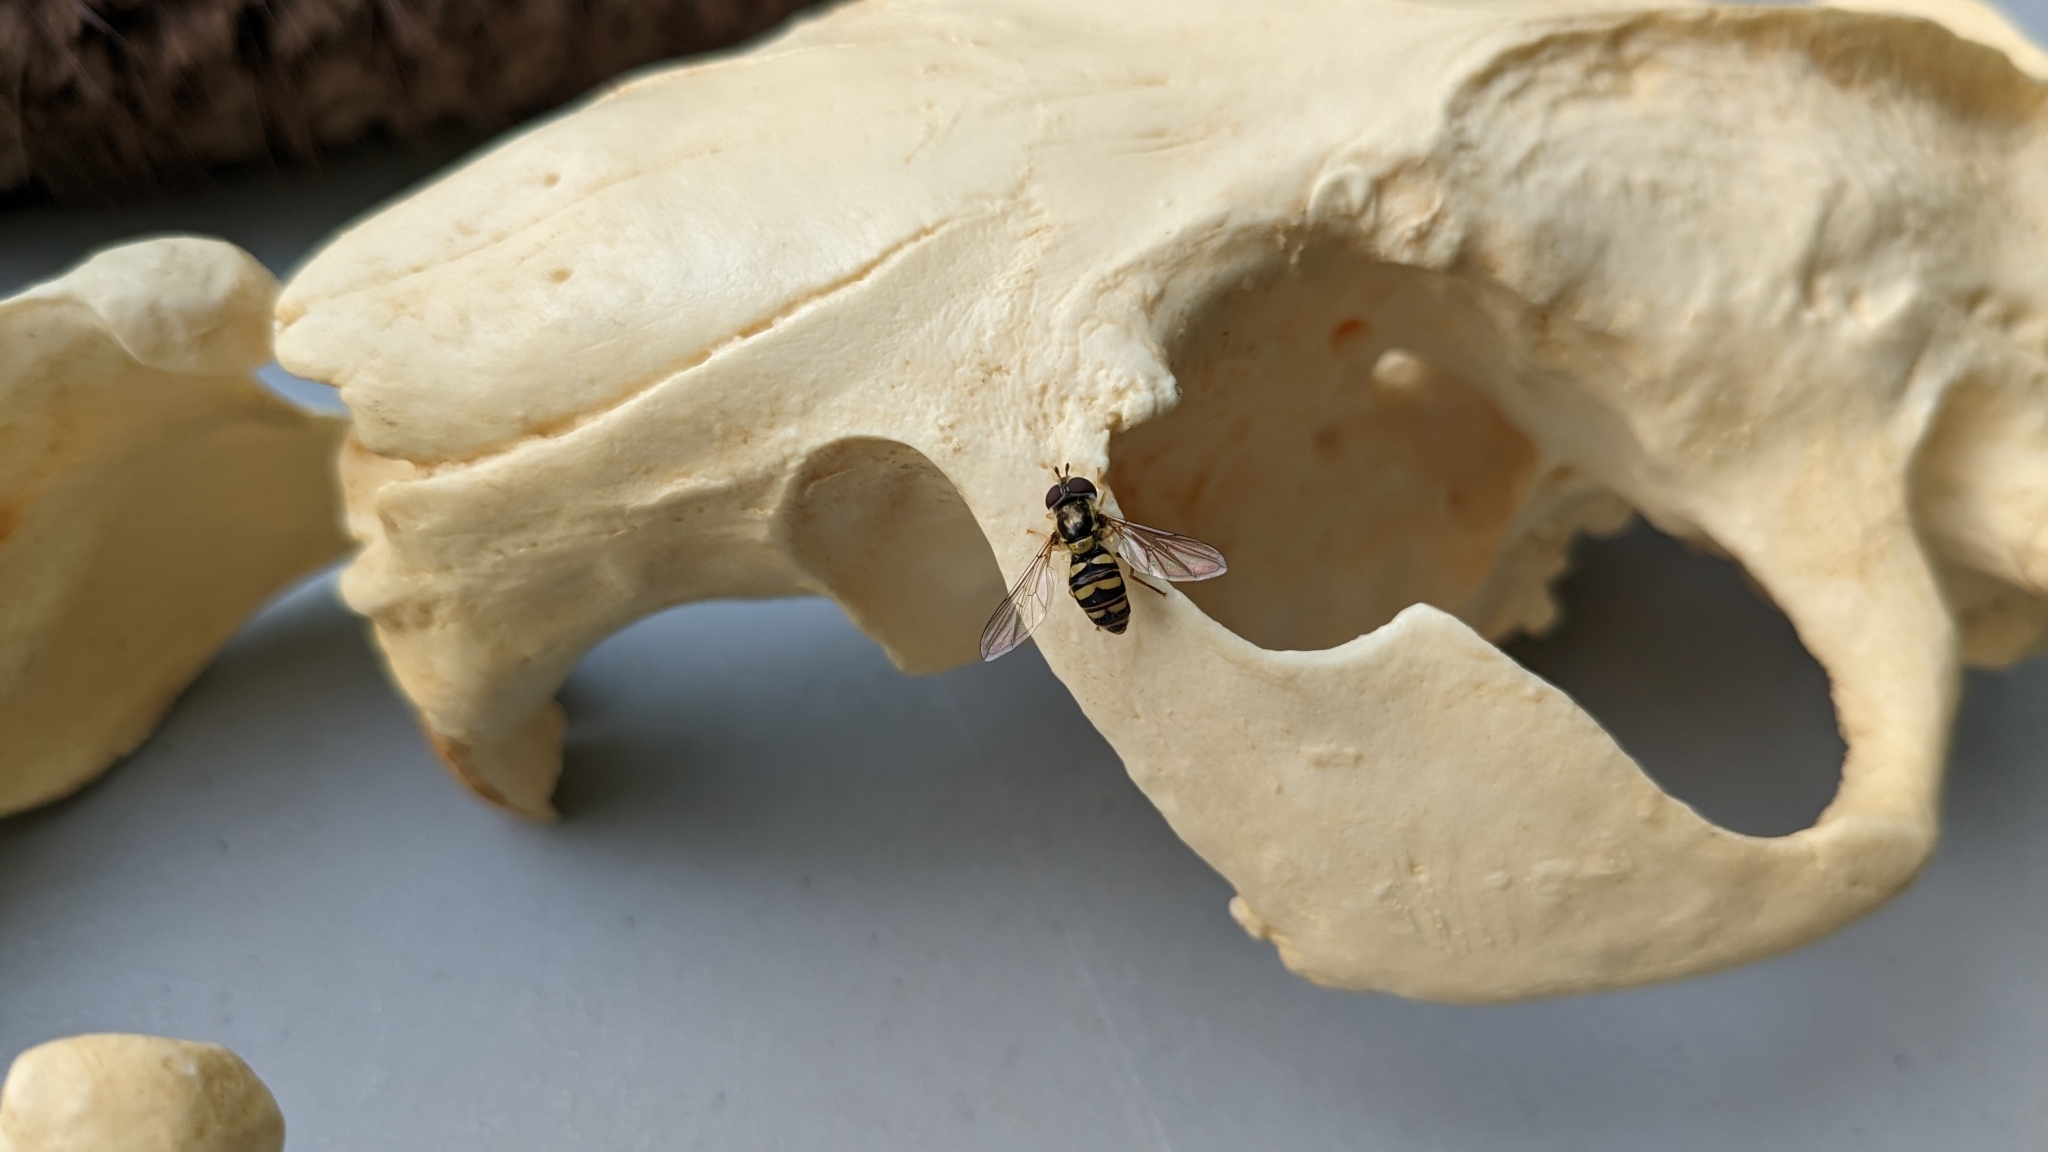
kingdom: Animalia
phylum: Arthropoda
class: Insecta
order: Diptera
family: Syrphidae
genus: Epistrophella
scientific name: Epistrophella emarginata
